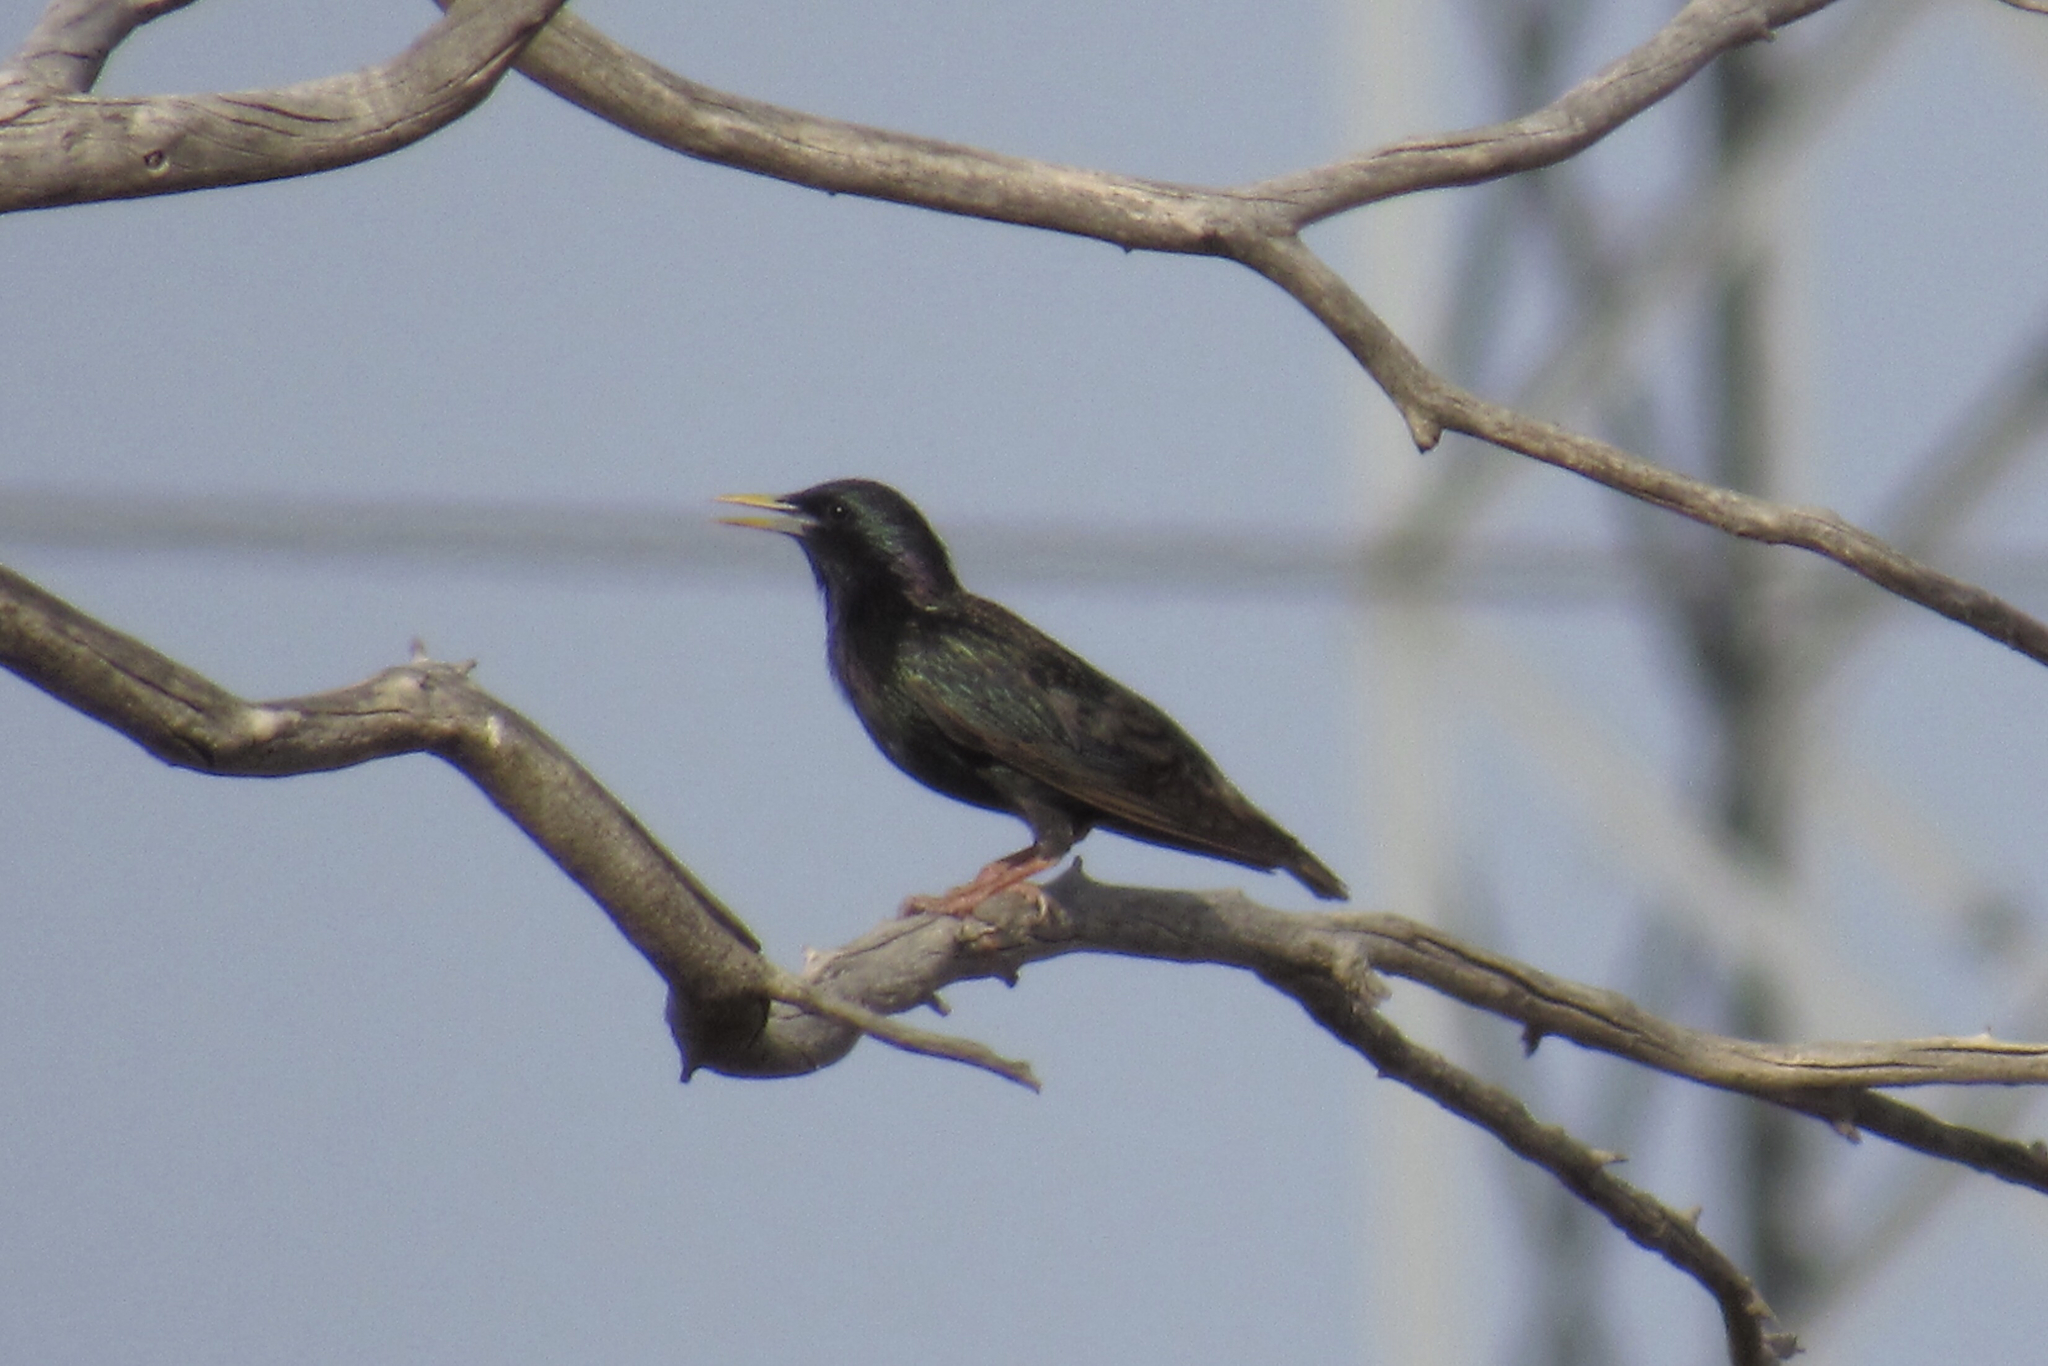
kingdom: Animalia
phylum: Chordata
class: Aves
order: Passeriformes
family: Sturnidae
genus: Sturnus
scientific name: Sturnus vulgaris
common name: Common starling
